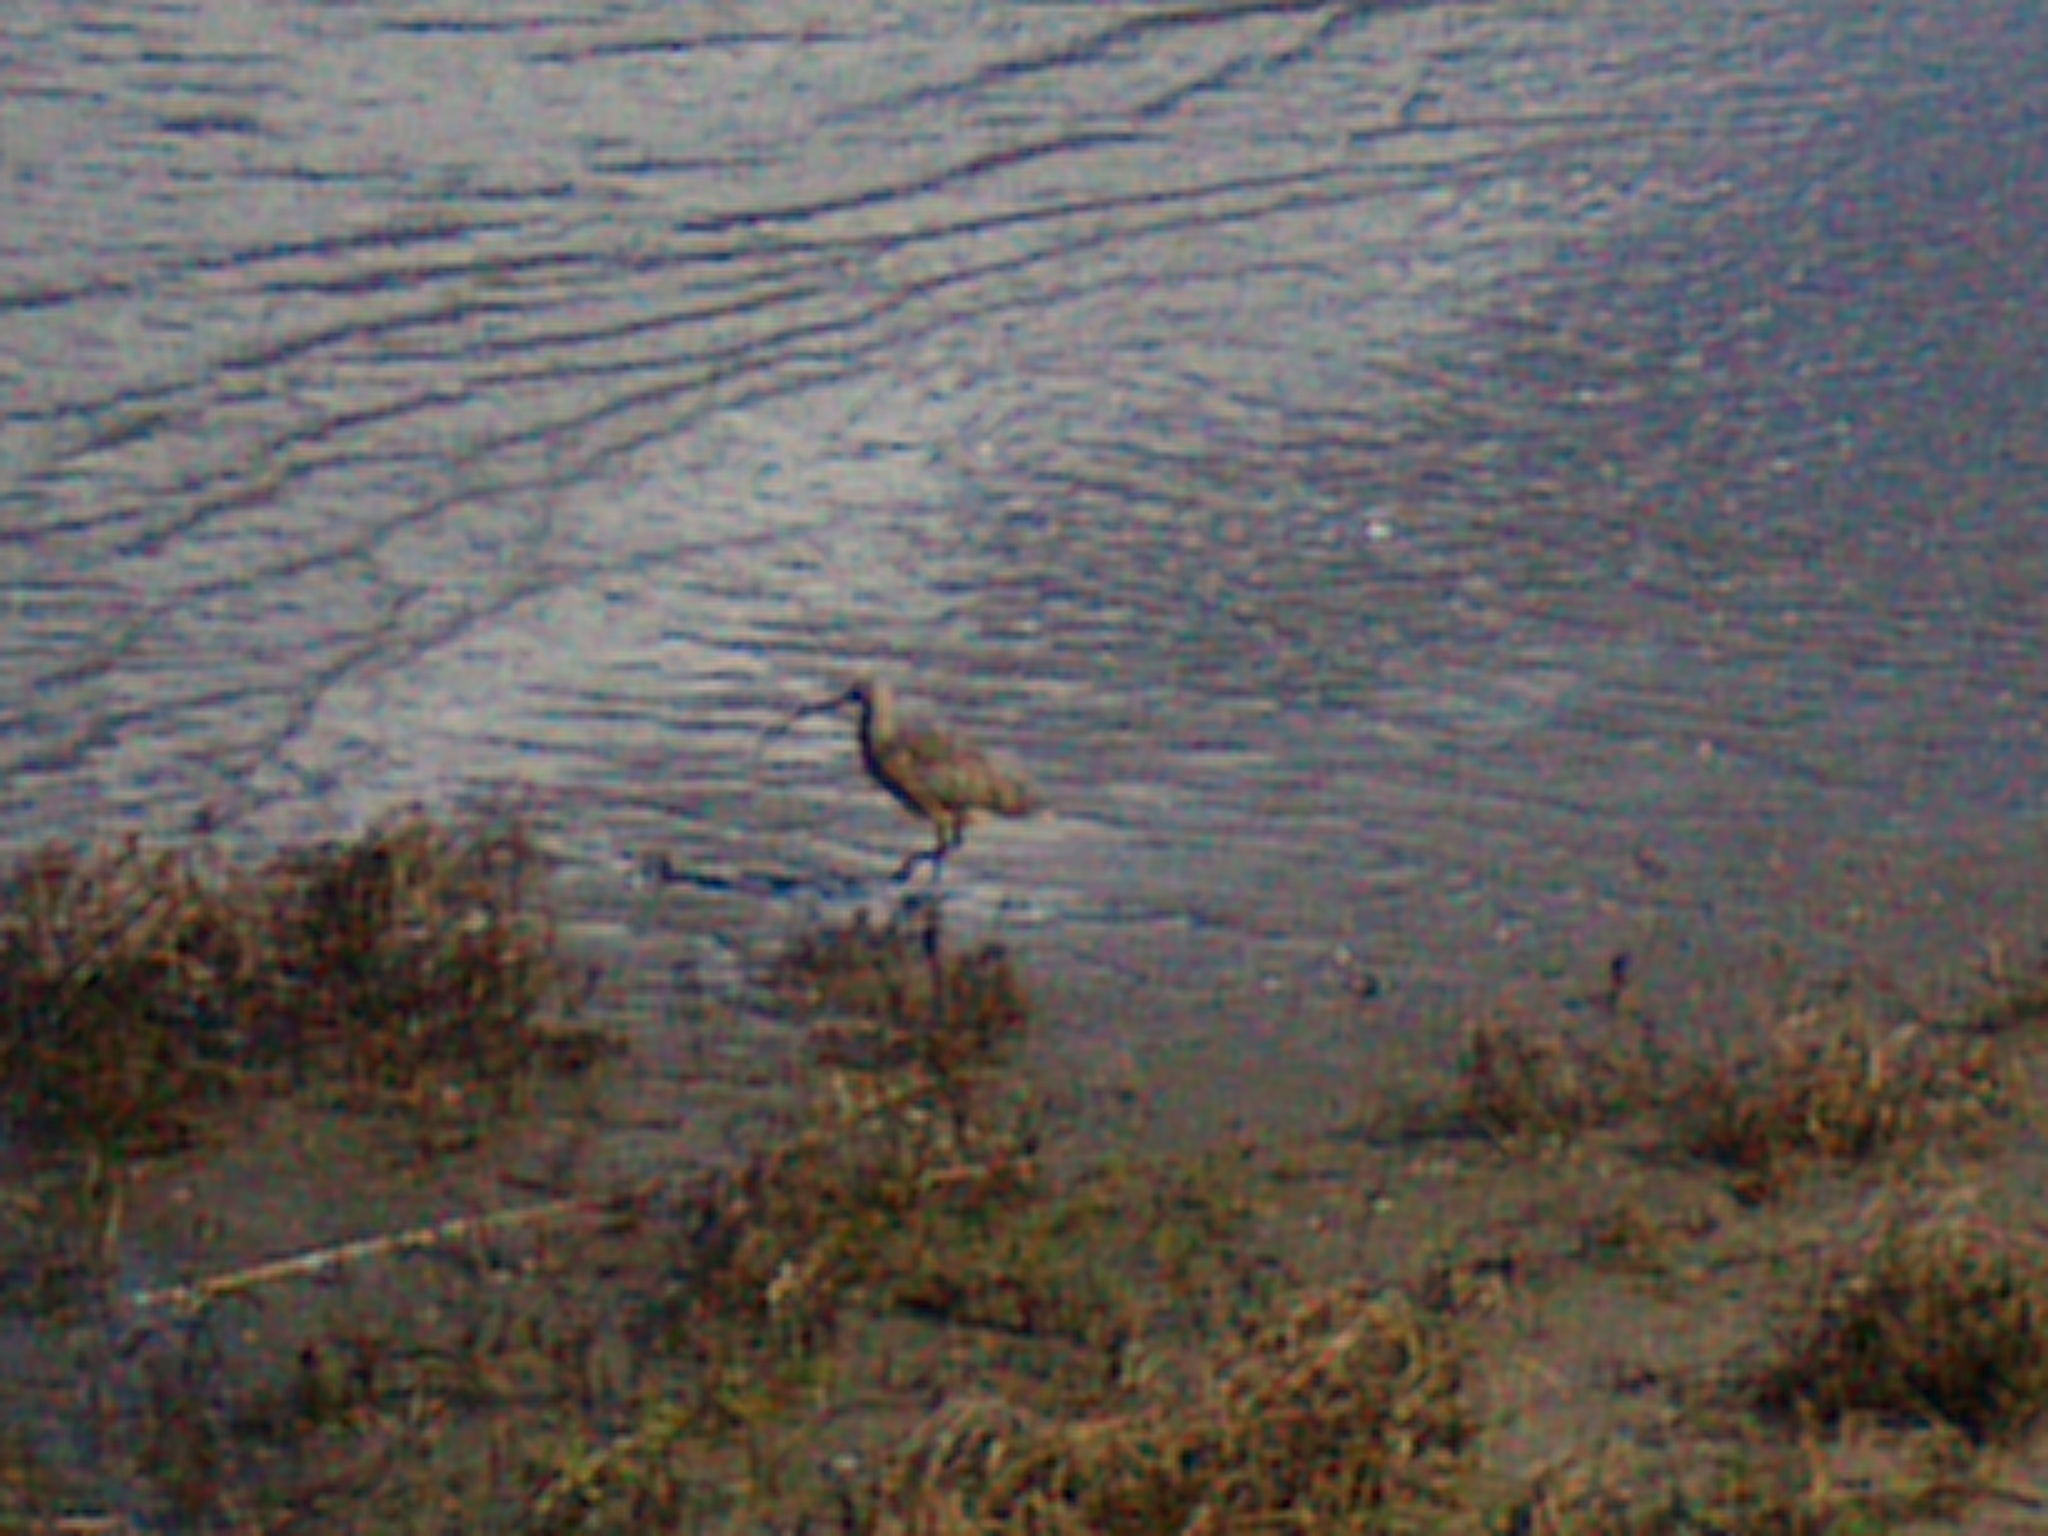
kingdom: Animalia
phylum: Chordata
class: Aves
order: Charadriiformes
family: Scolopacidae
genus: Numenius
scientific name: Numenius americanus
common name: Long-billed curlew
